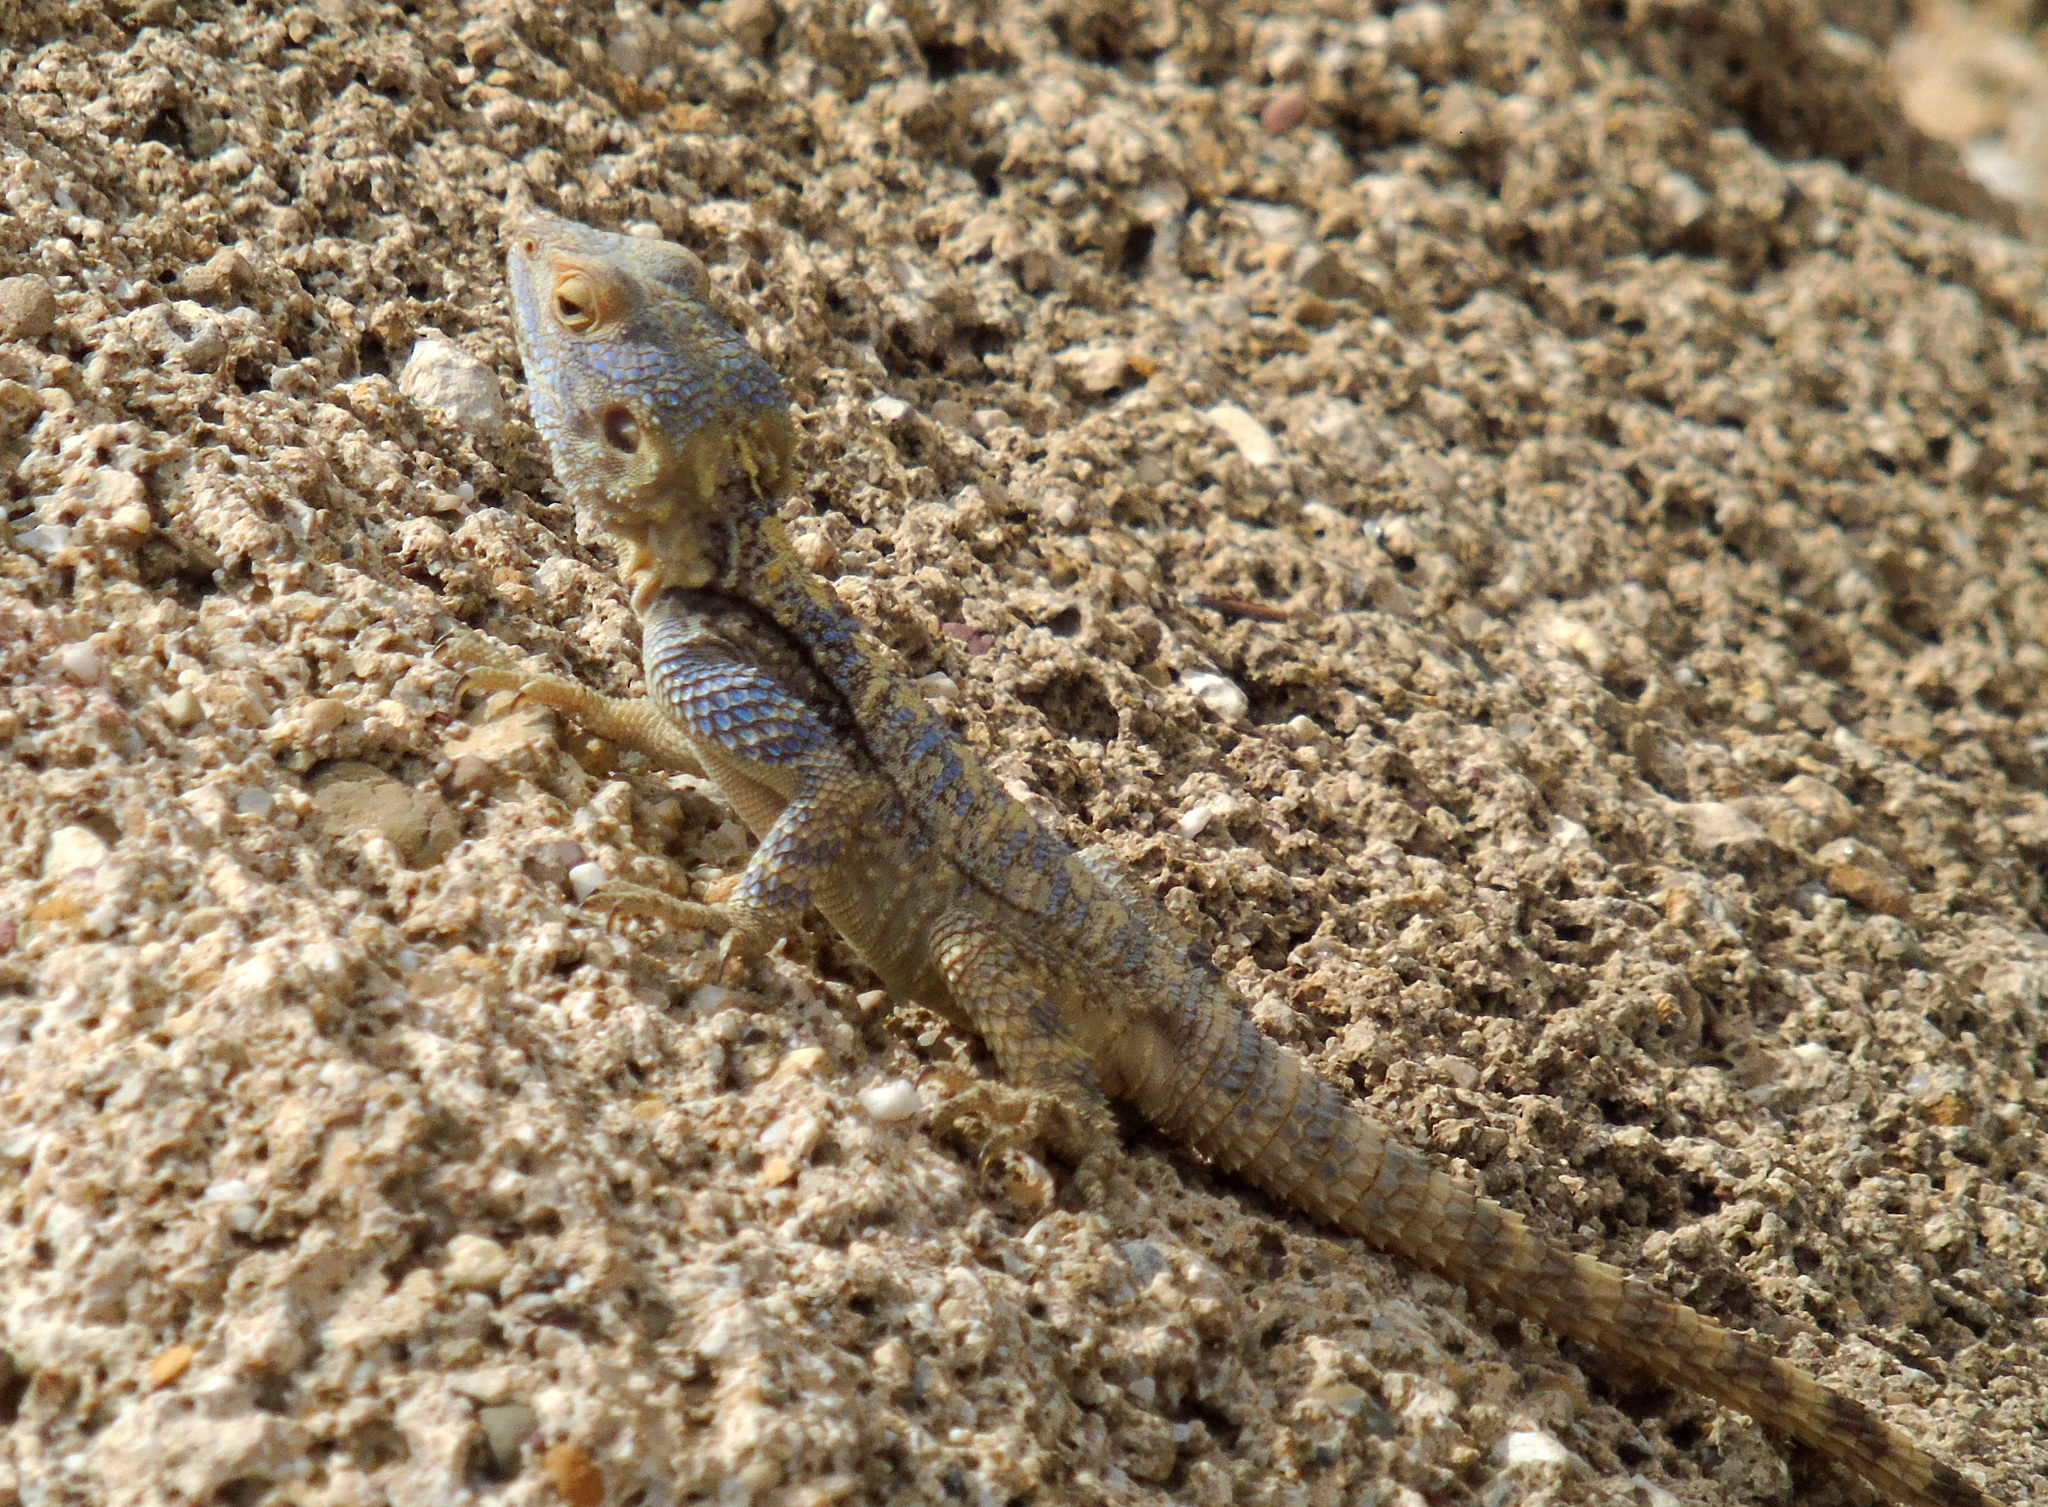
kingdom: Animalia
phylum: Chordata
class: Squamata
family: Agamidae
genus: Stellagama
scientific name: Stellagama stellio
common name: Starred agama
